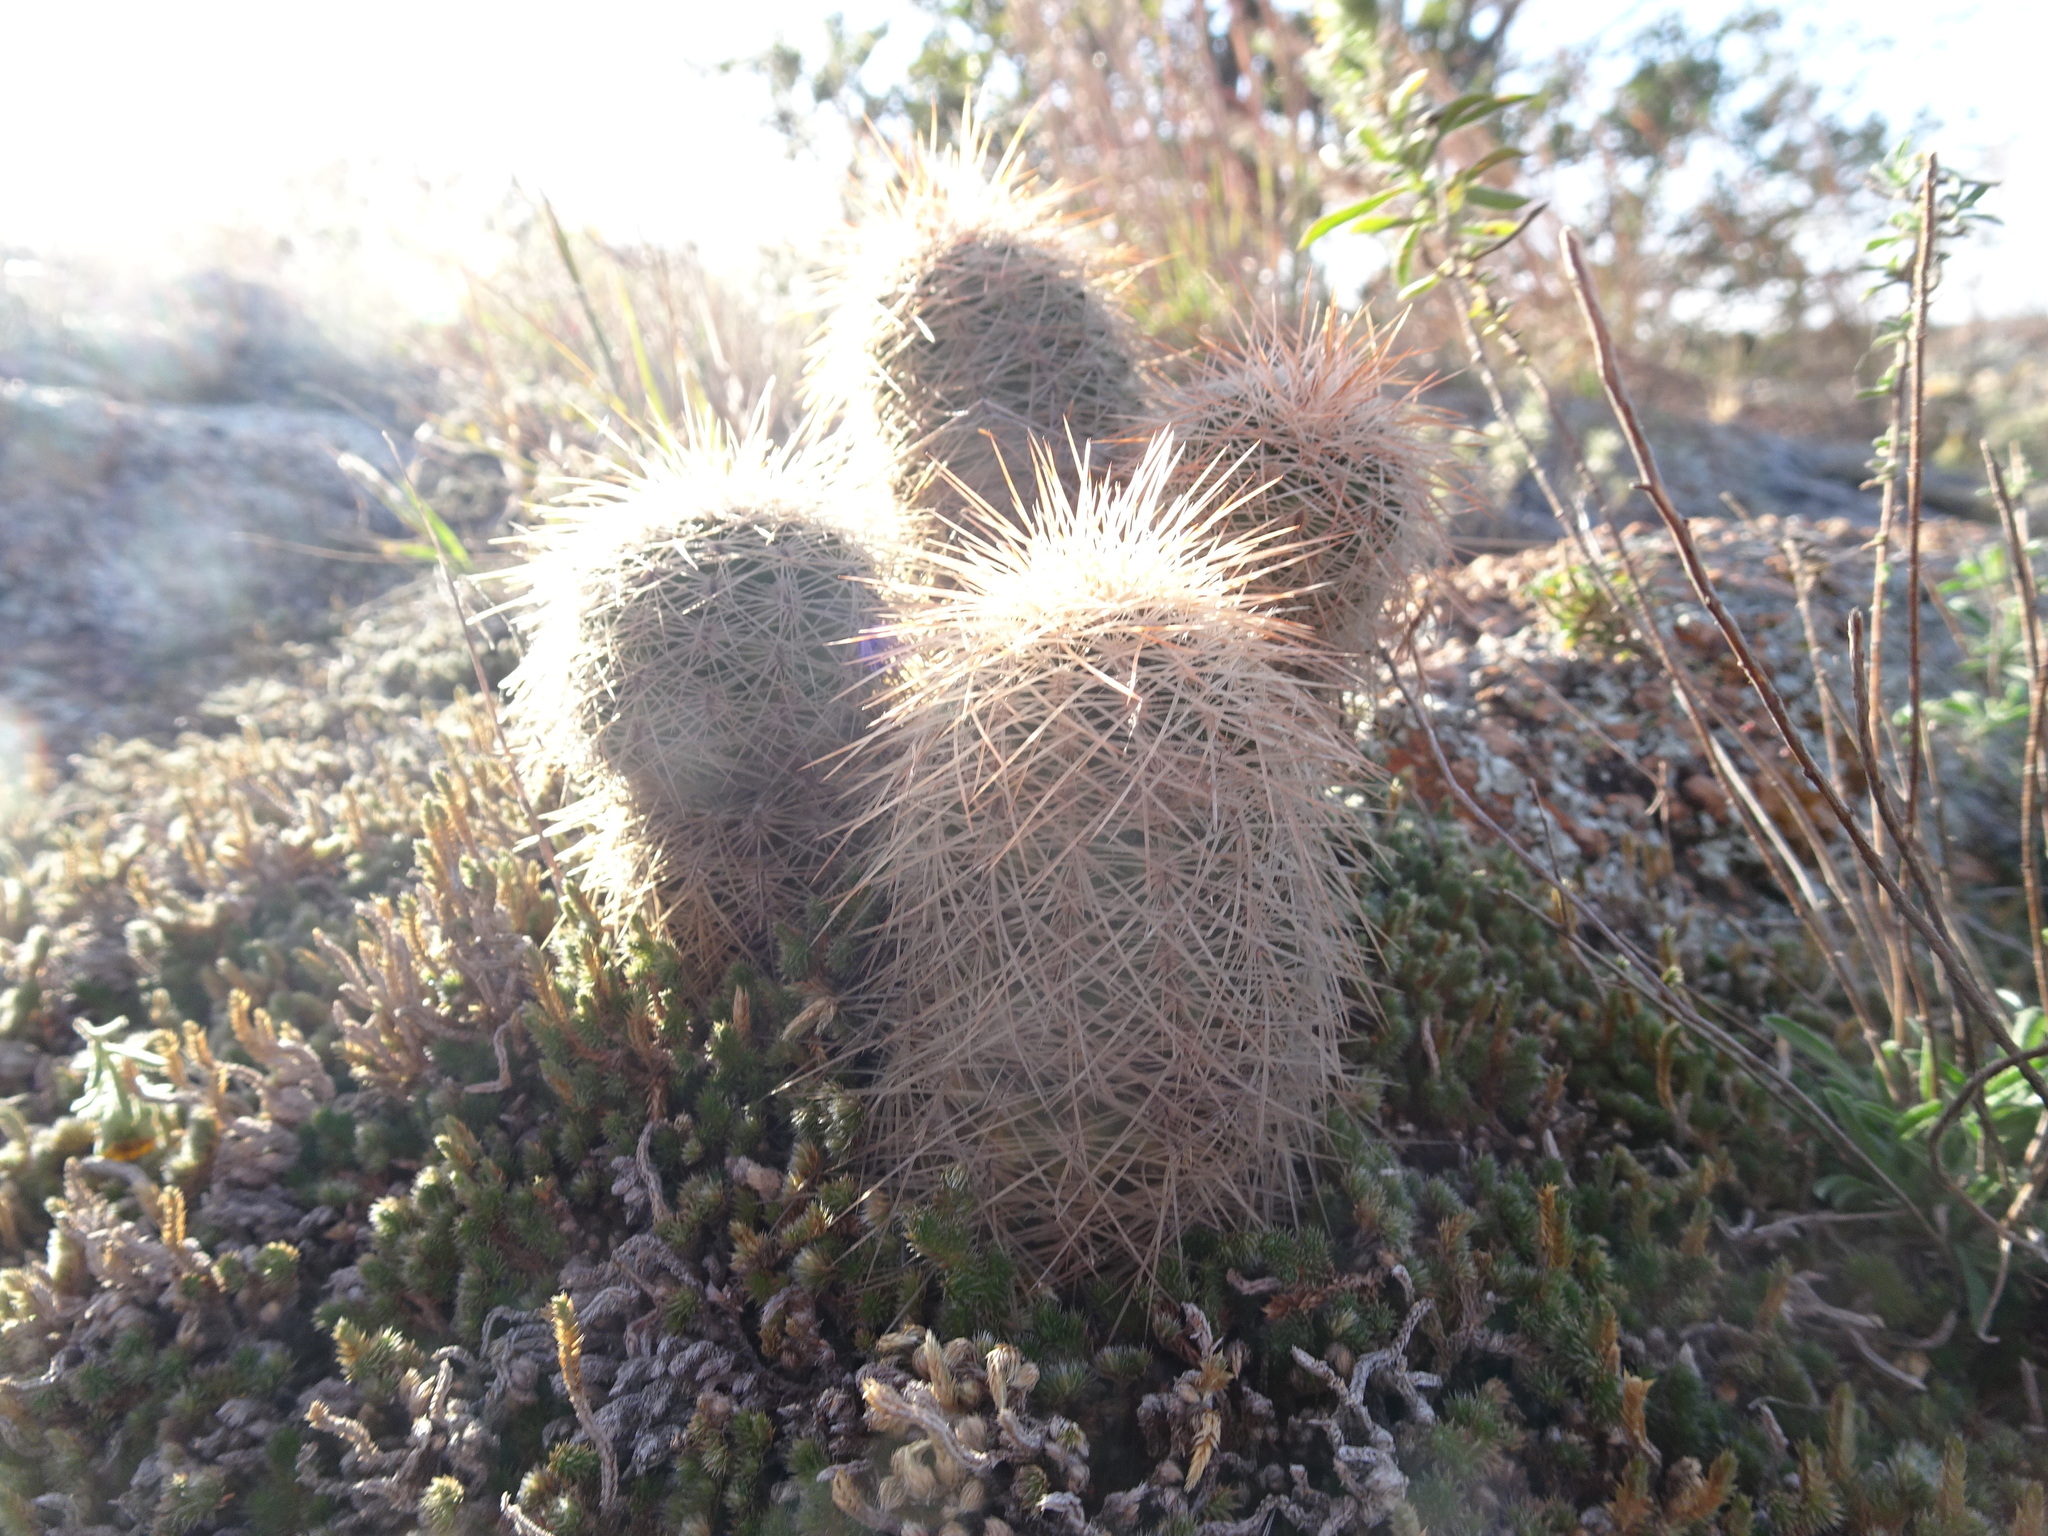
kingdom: Plantae
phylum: Tracheophyta
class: Magnoliopsida
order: Caryophyllales
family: Cactaceae
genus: Echinocereus
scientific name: Echinocereus reichenbachii
